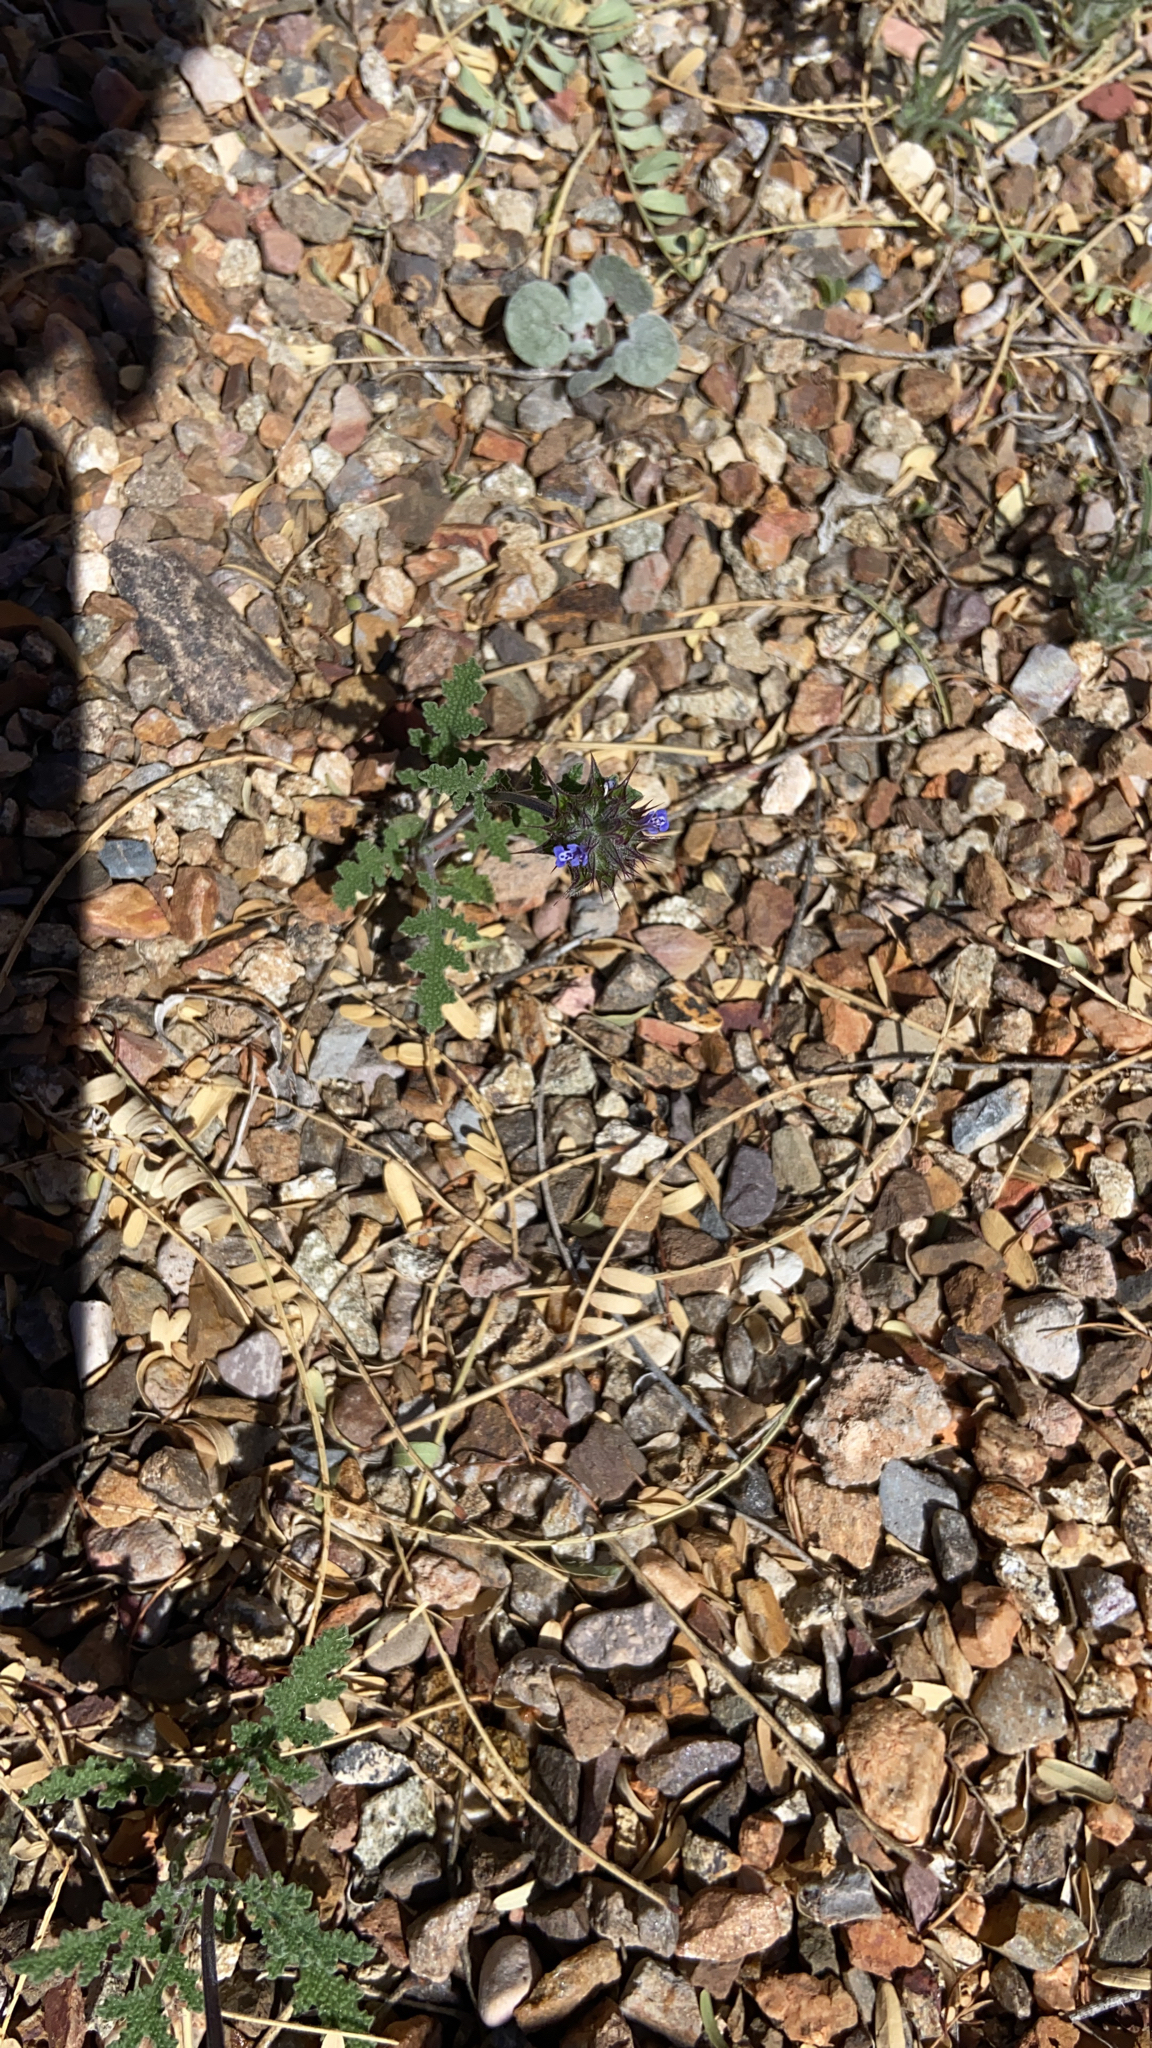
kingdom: Plantae
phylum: Tracheophyta
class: Magnoliopsida
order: Lamiales
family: Lamiaceae
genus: Salvia
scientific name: Salvia columbariae
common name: Chia
